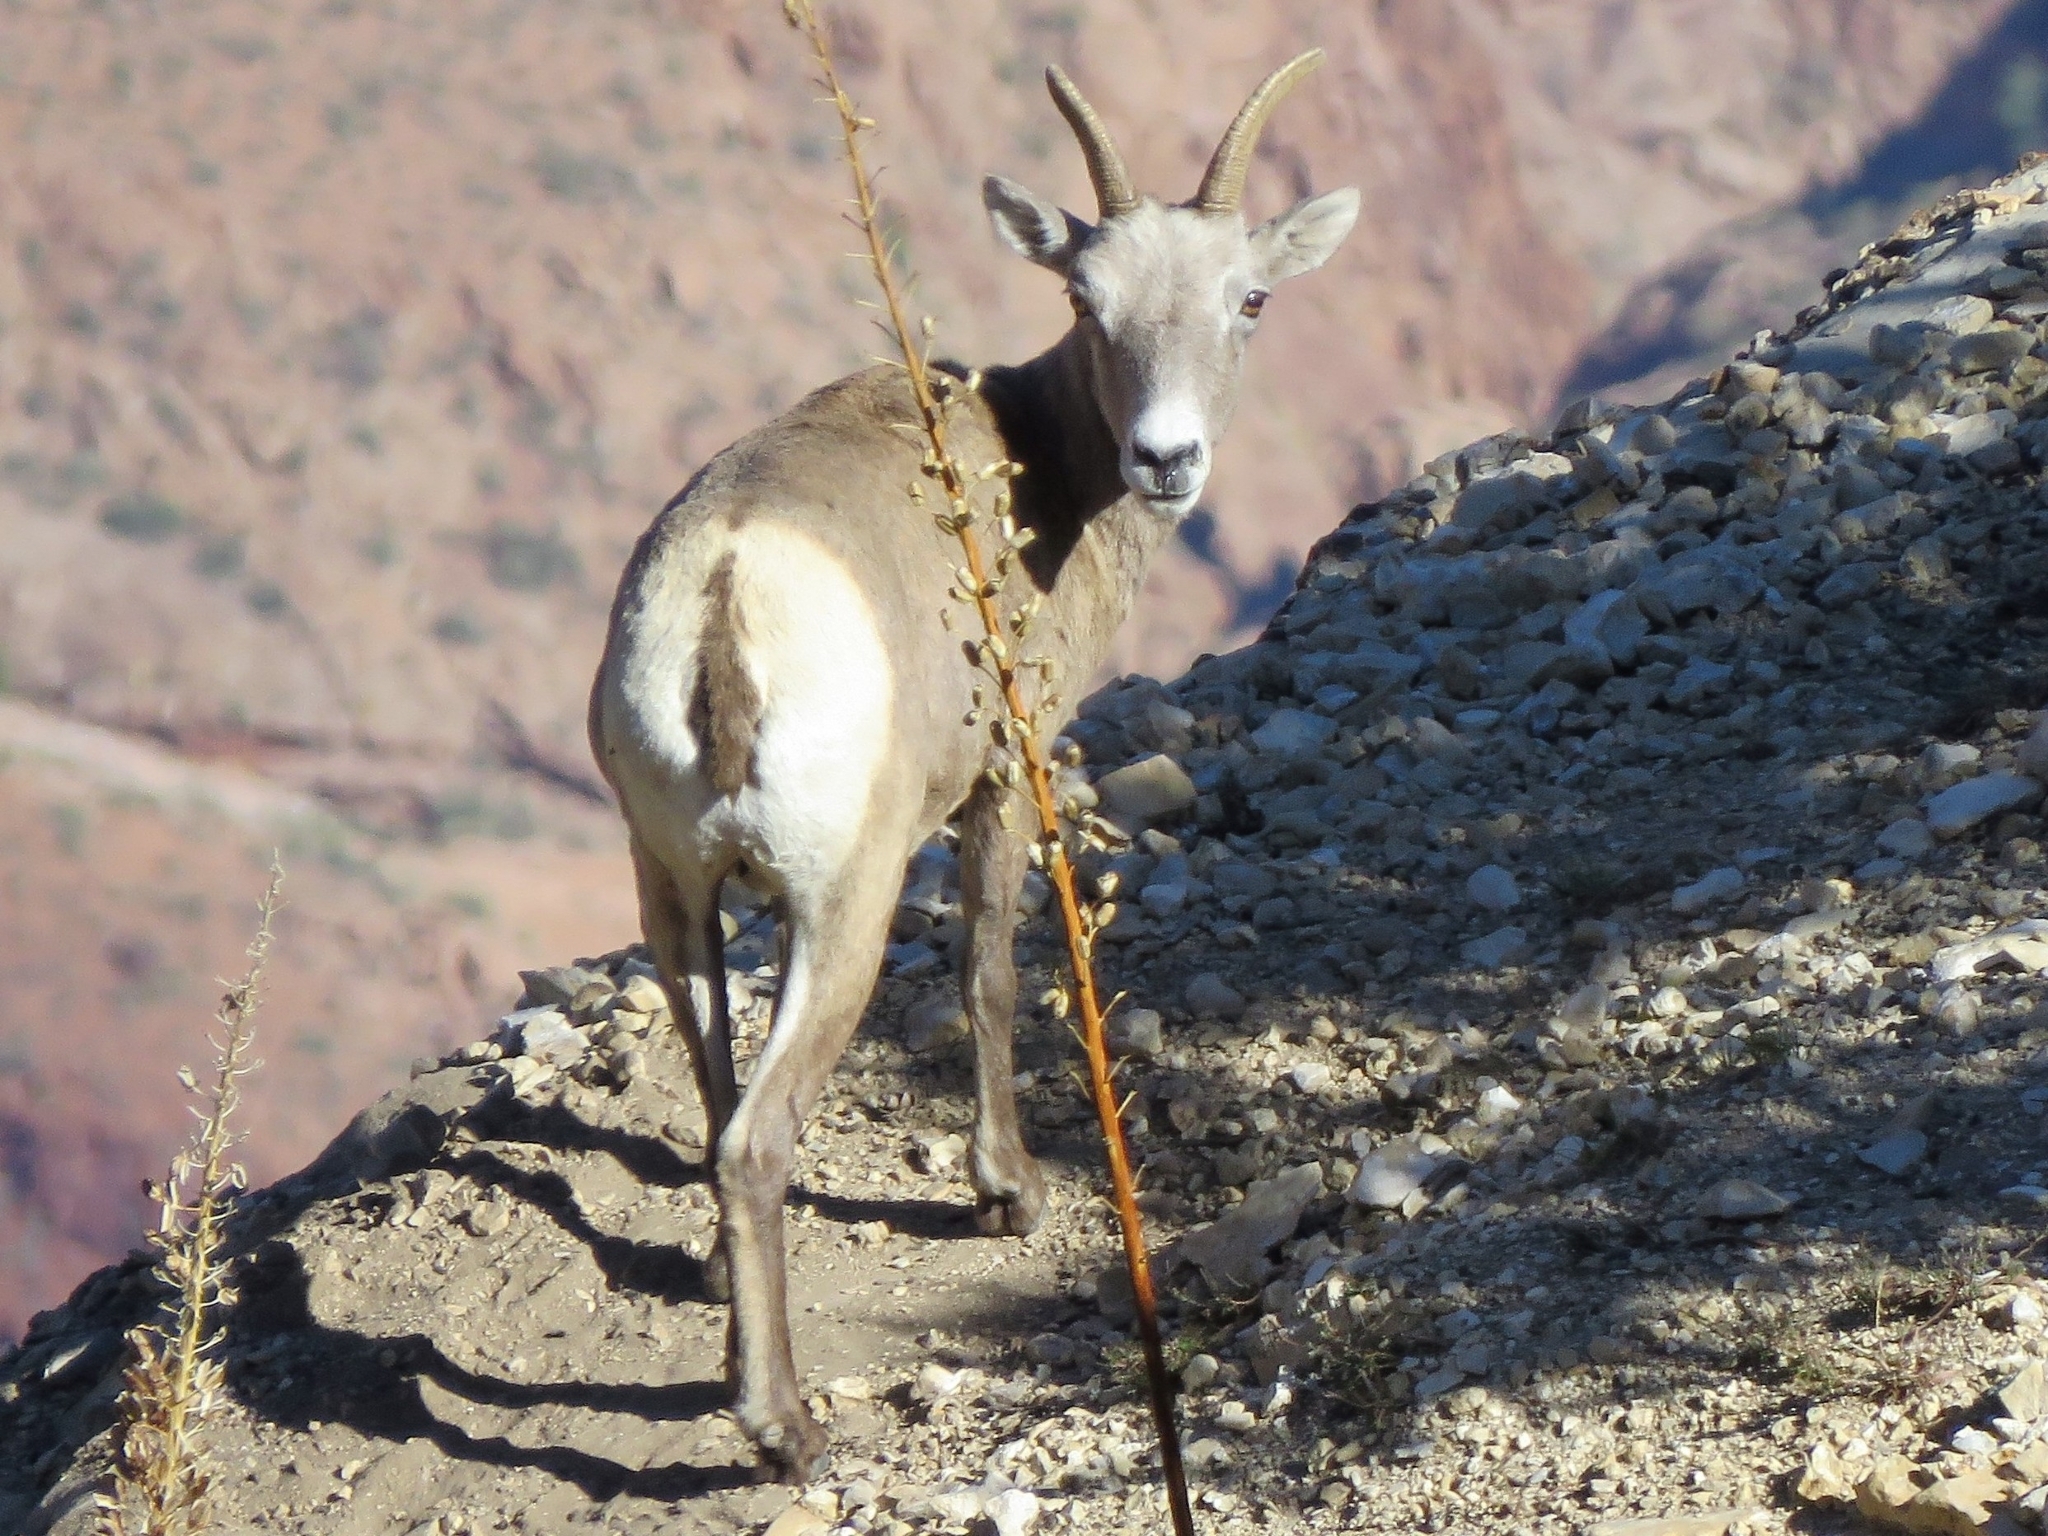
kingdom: Animalia
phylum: Chordata
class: Mammalia
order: Artiodactyla
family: Bovidae
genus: Ovis
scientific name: Ovis canadensis
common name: Bighorn sheep
